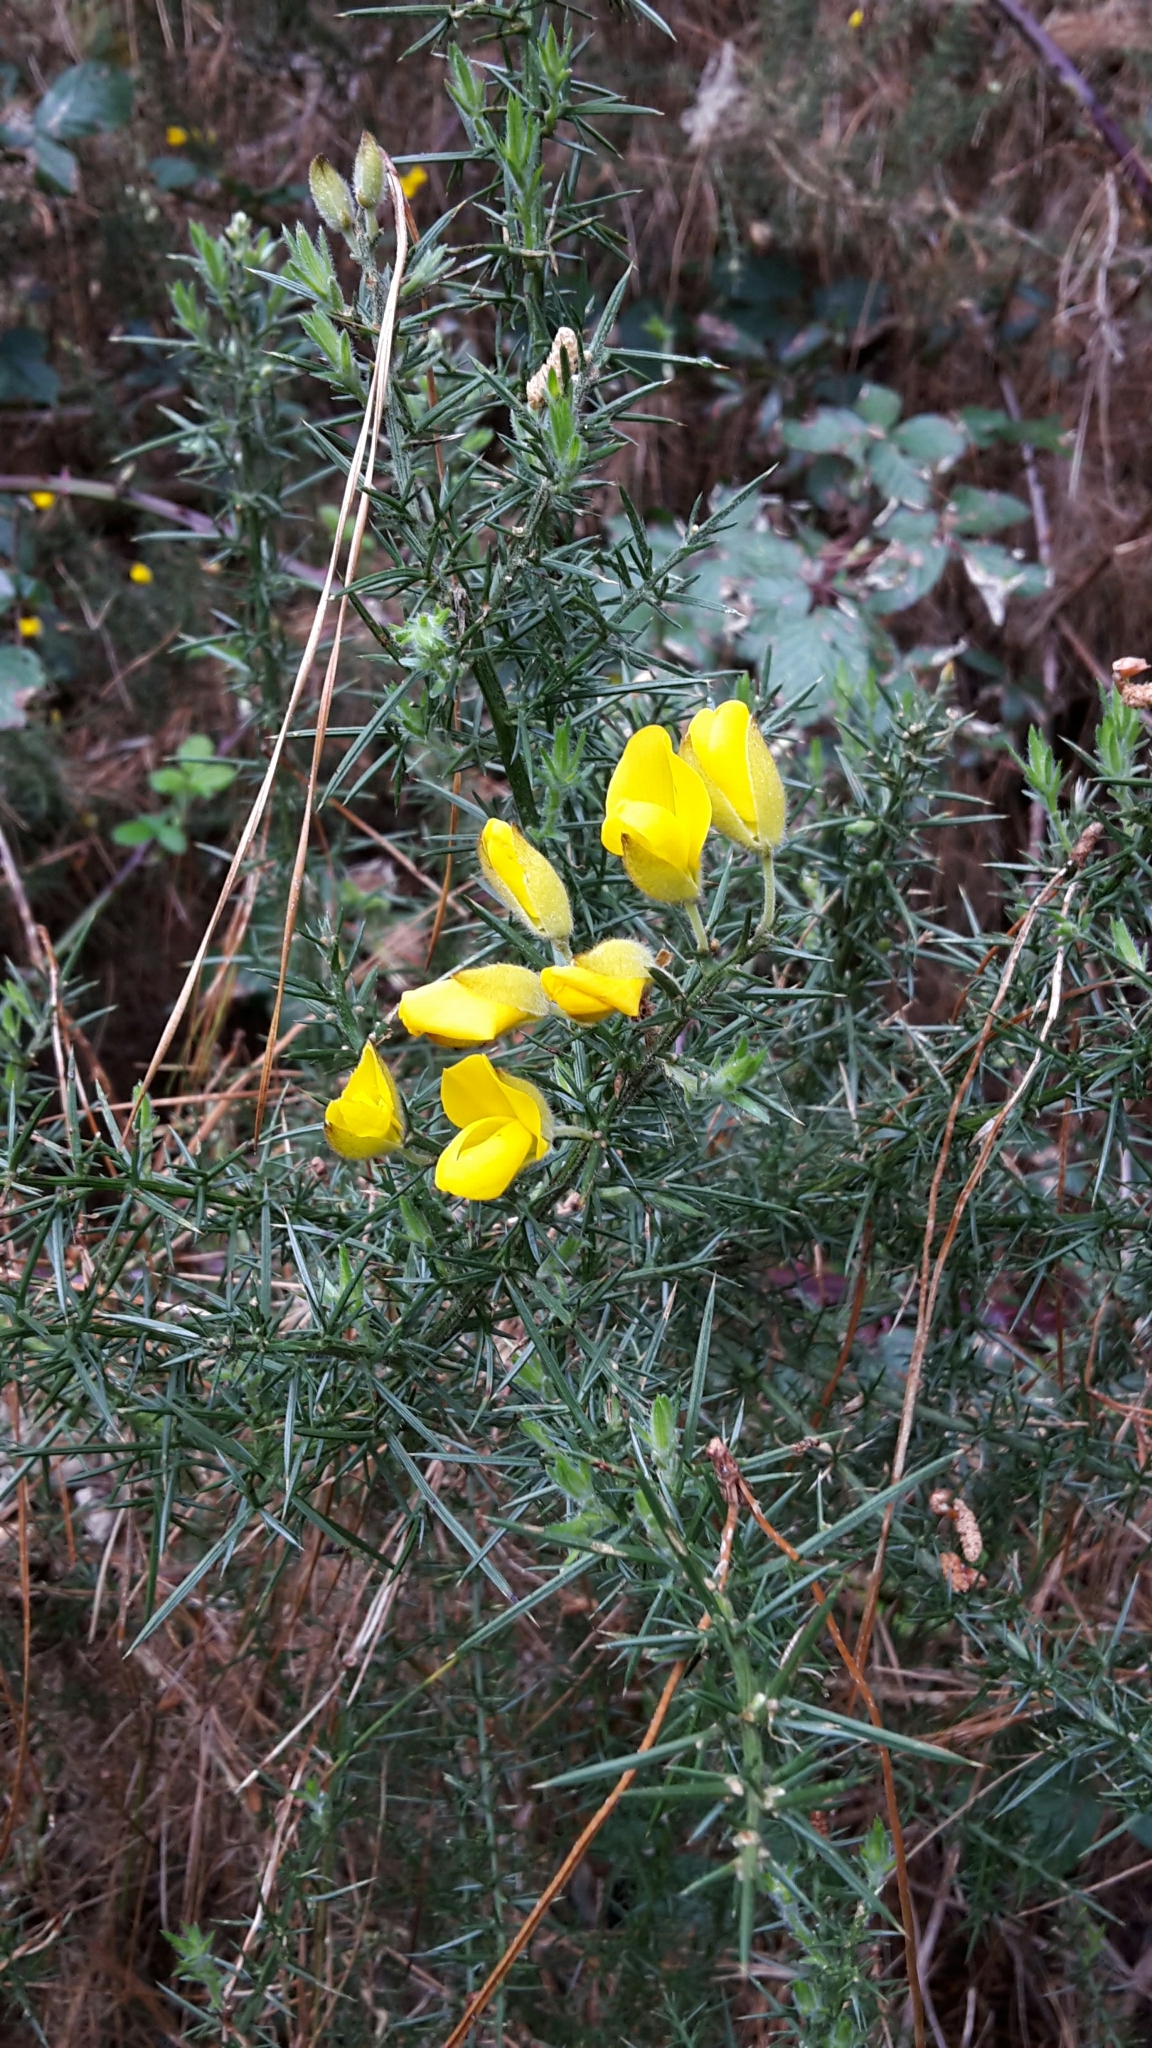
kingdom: Plantae
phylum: Tracheophyta
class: Magnoliopsida
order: Fabales
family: Fabaceae
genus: Ulex
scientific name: Ulex europaeus
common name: Common gorse
